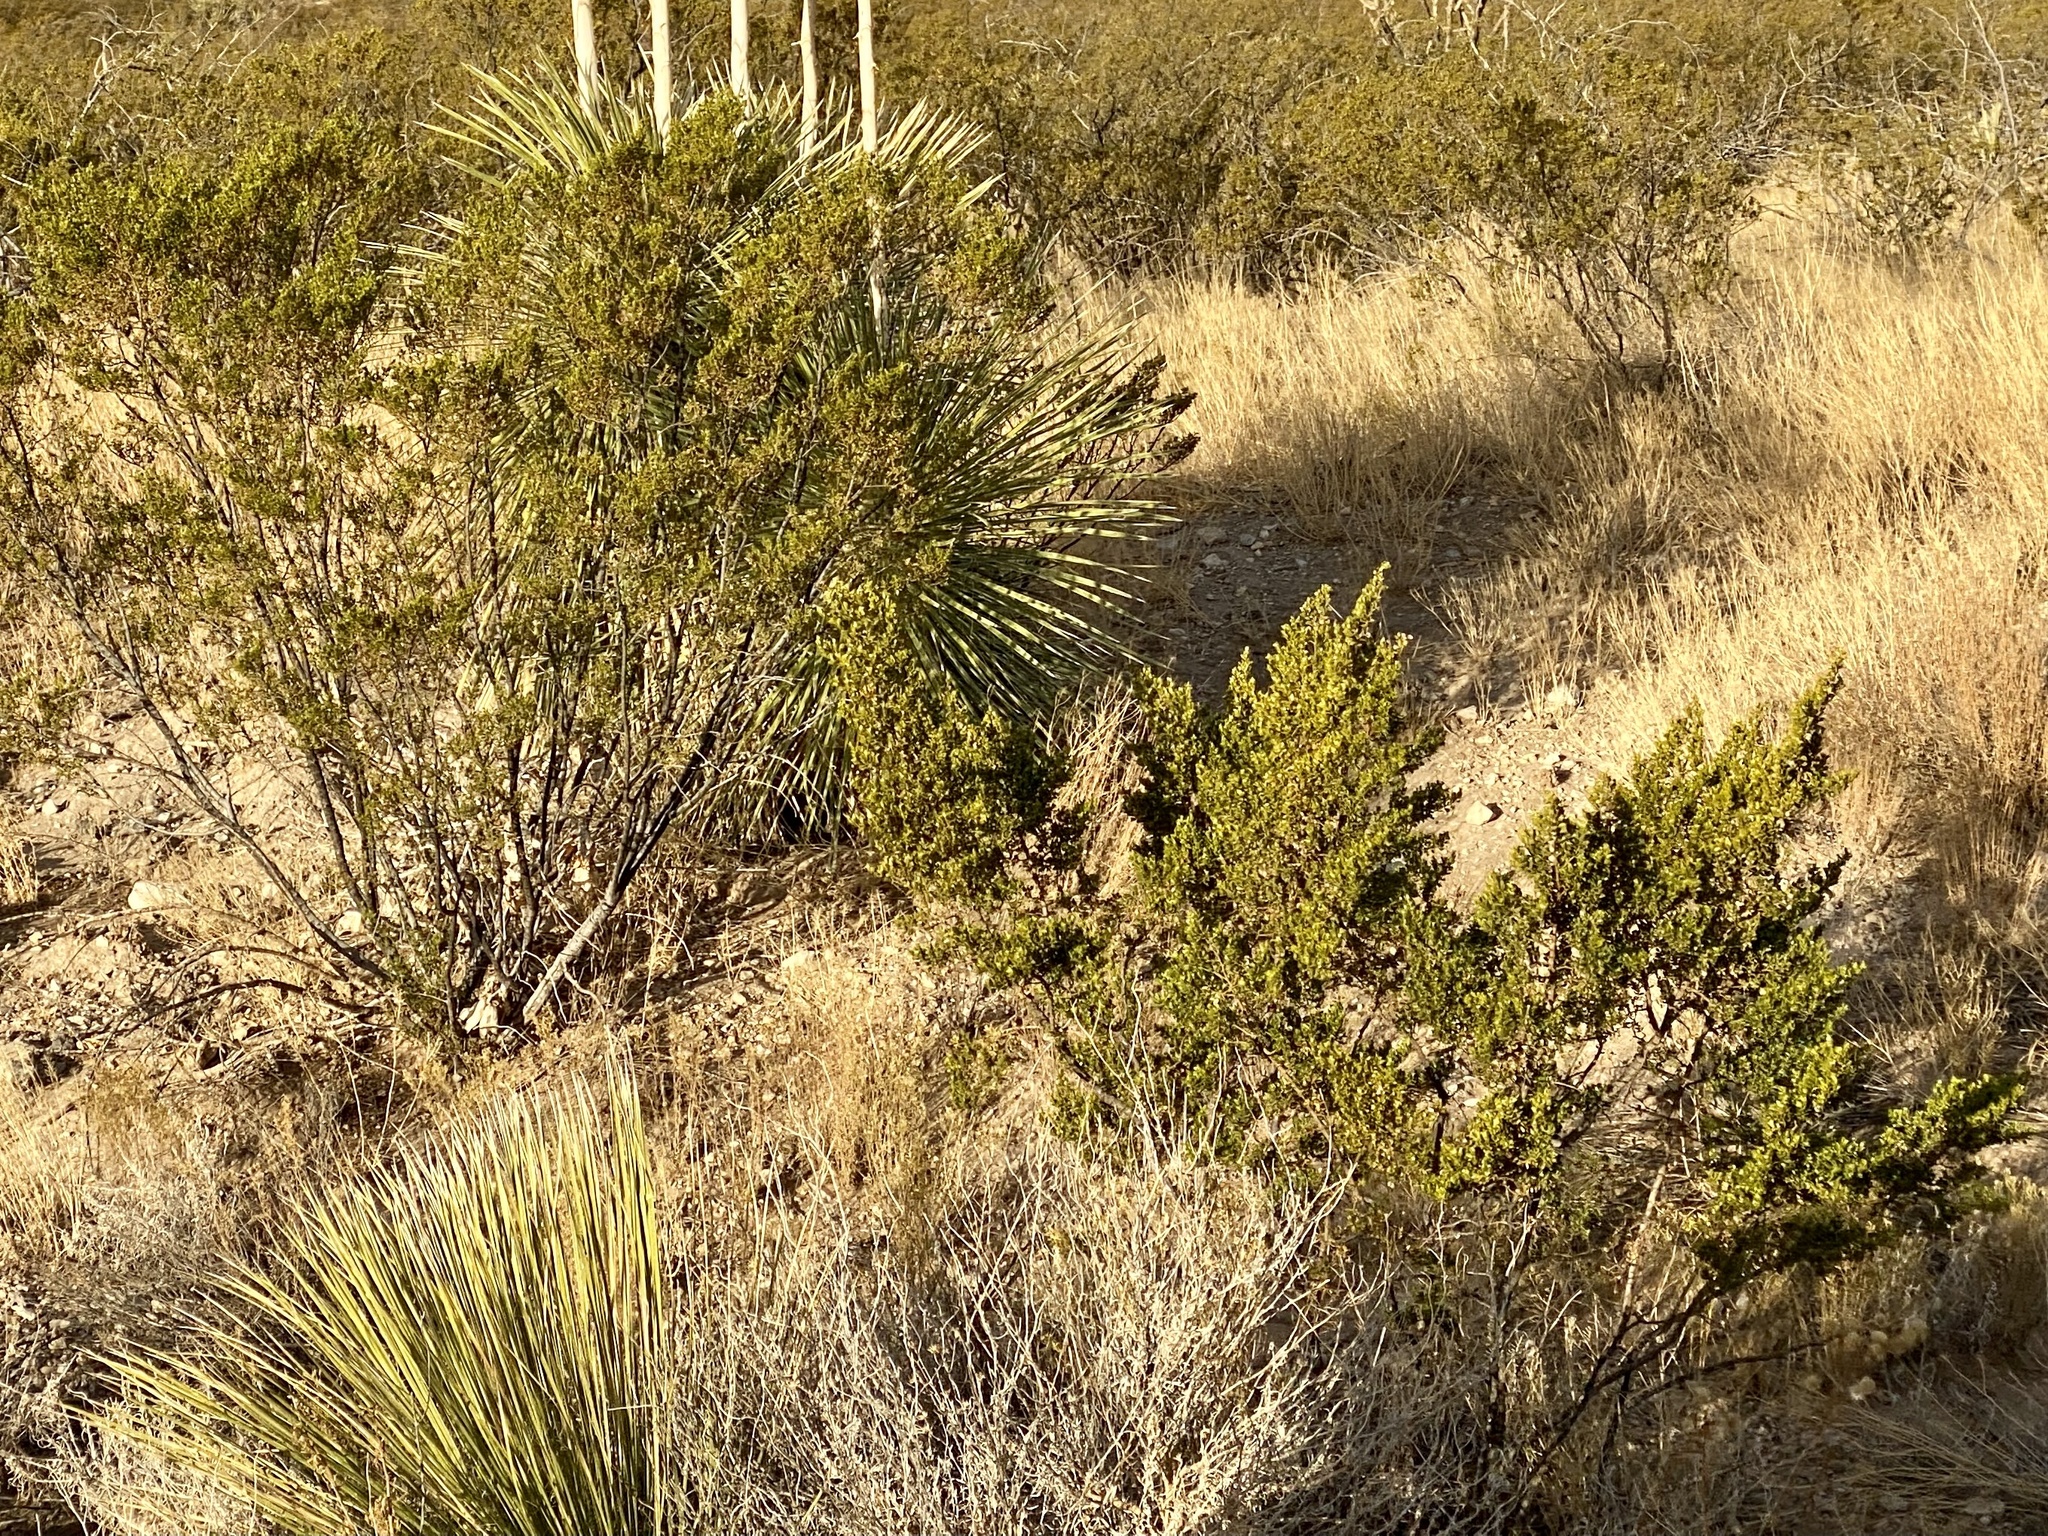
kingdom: Plantae
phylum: Tracheophyta
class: Magnoliopsida
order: Zygophyllales
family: Zygophyllaceae
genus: Larrea
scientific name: Larrea tridentata
